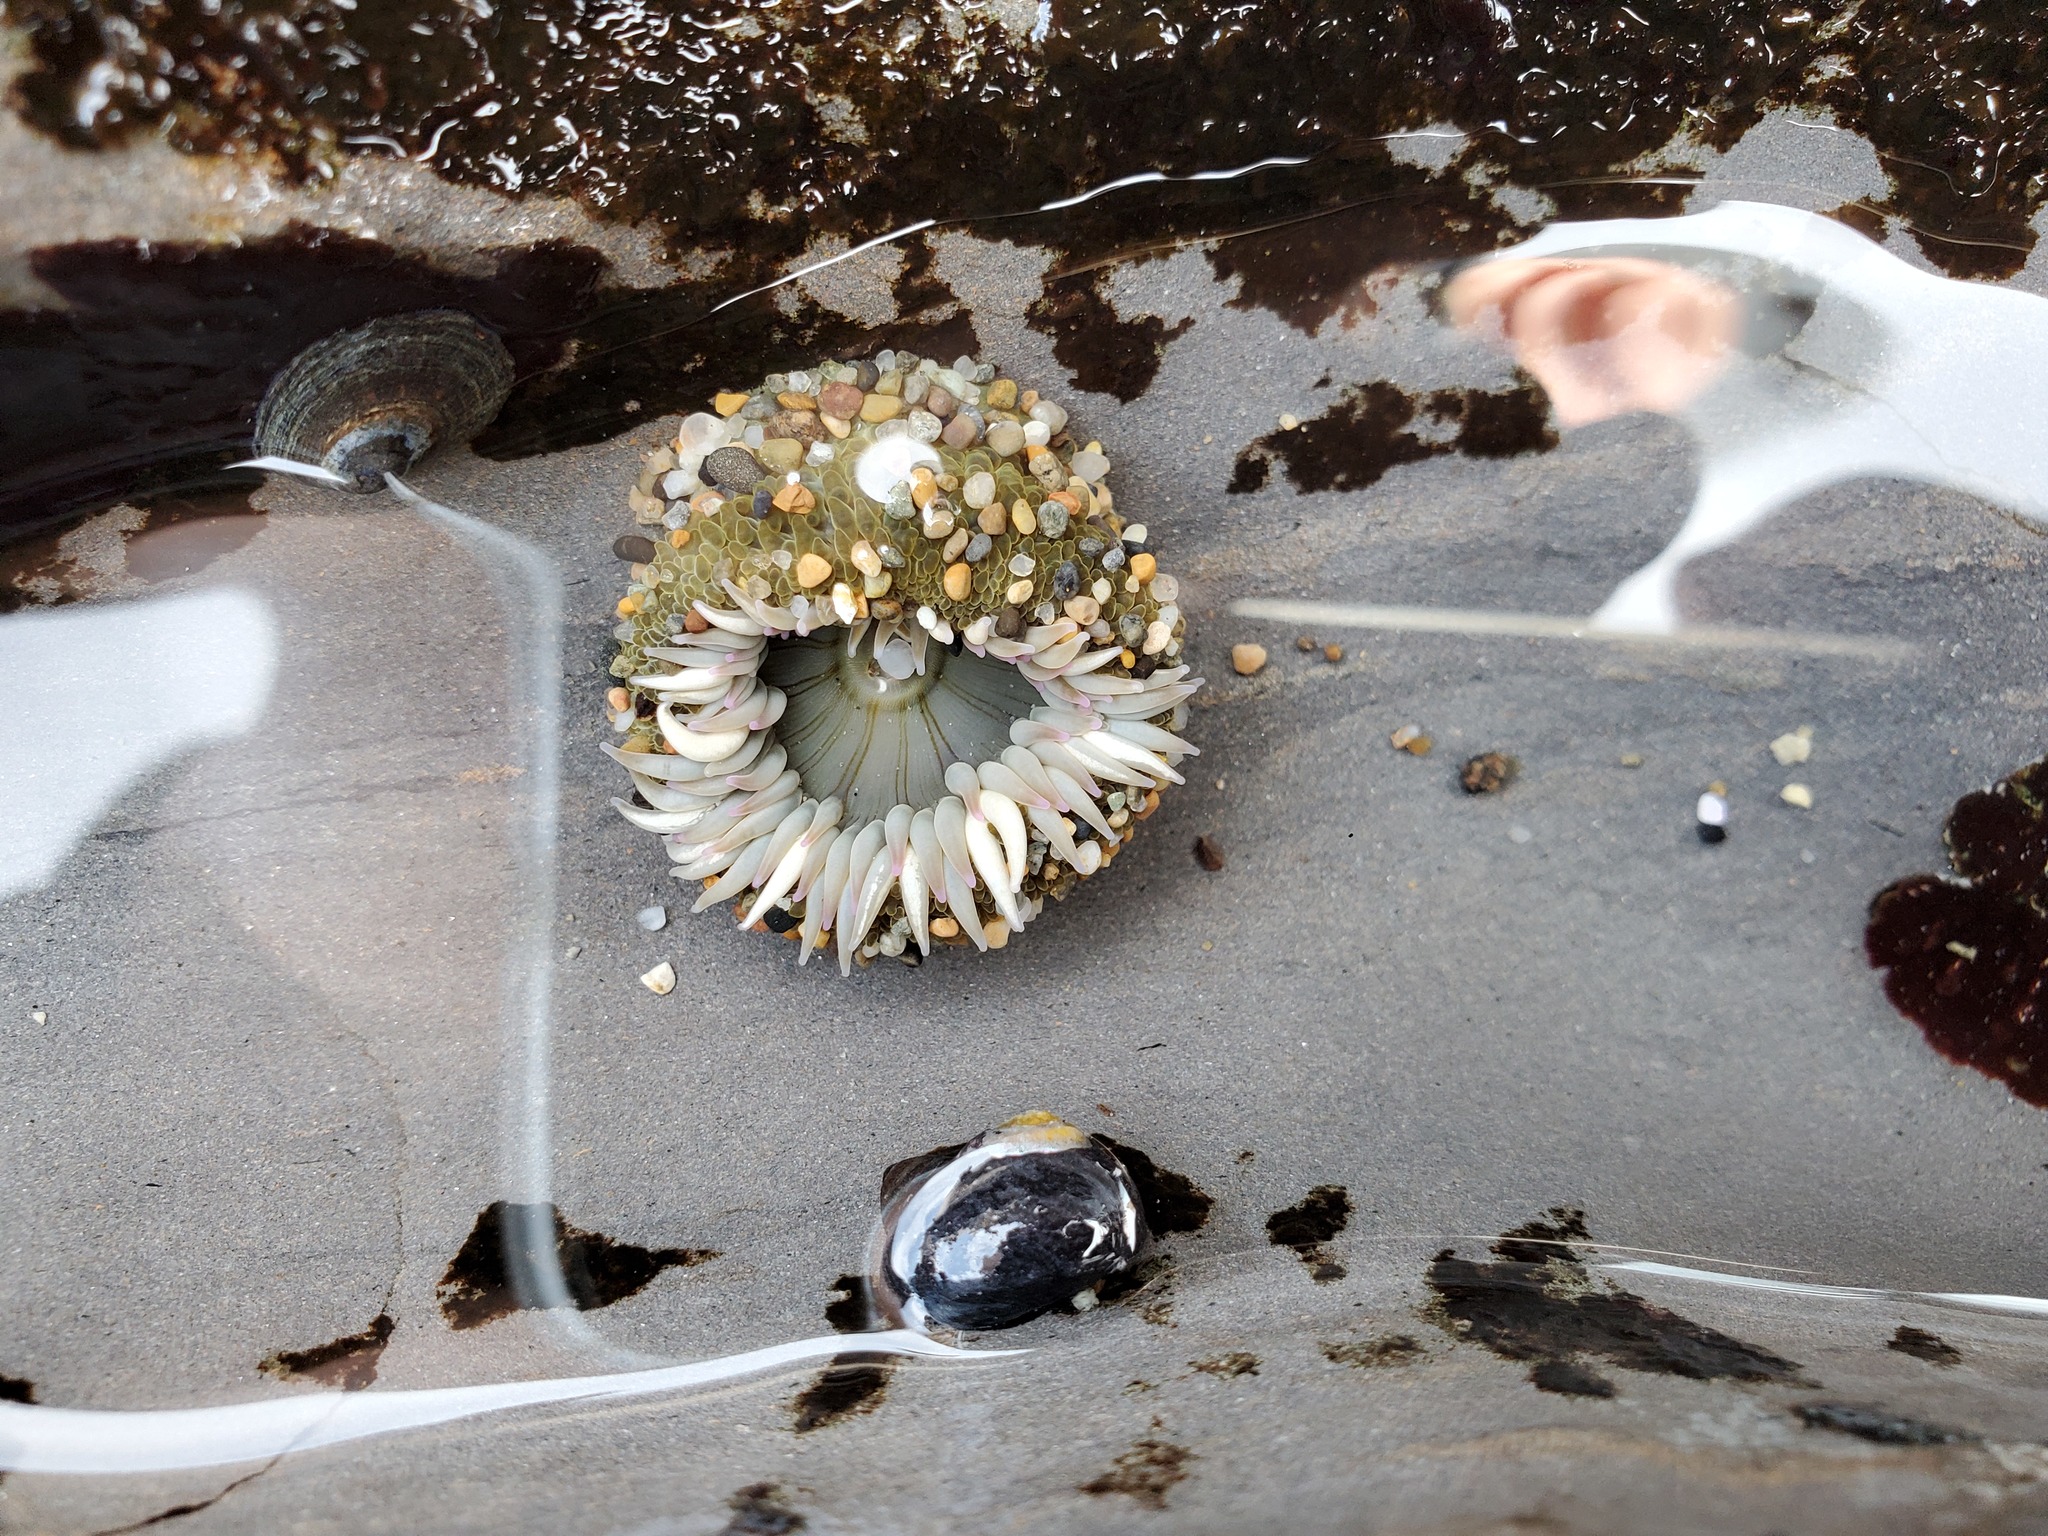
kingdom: Animalia
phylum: Cnidaria
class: Anthozoa
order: Actiniaria
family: Actiniidae
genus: Anthopleura
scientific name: Anthopleura elegantissima
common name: Clonal anemone
